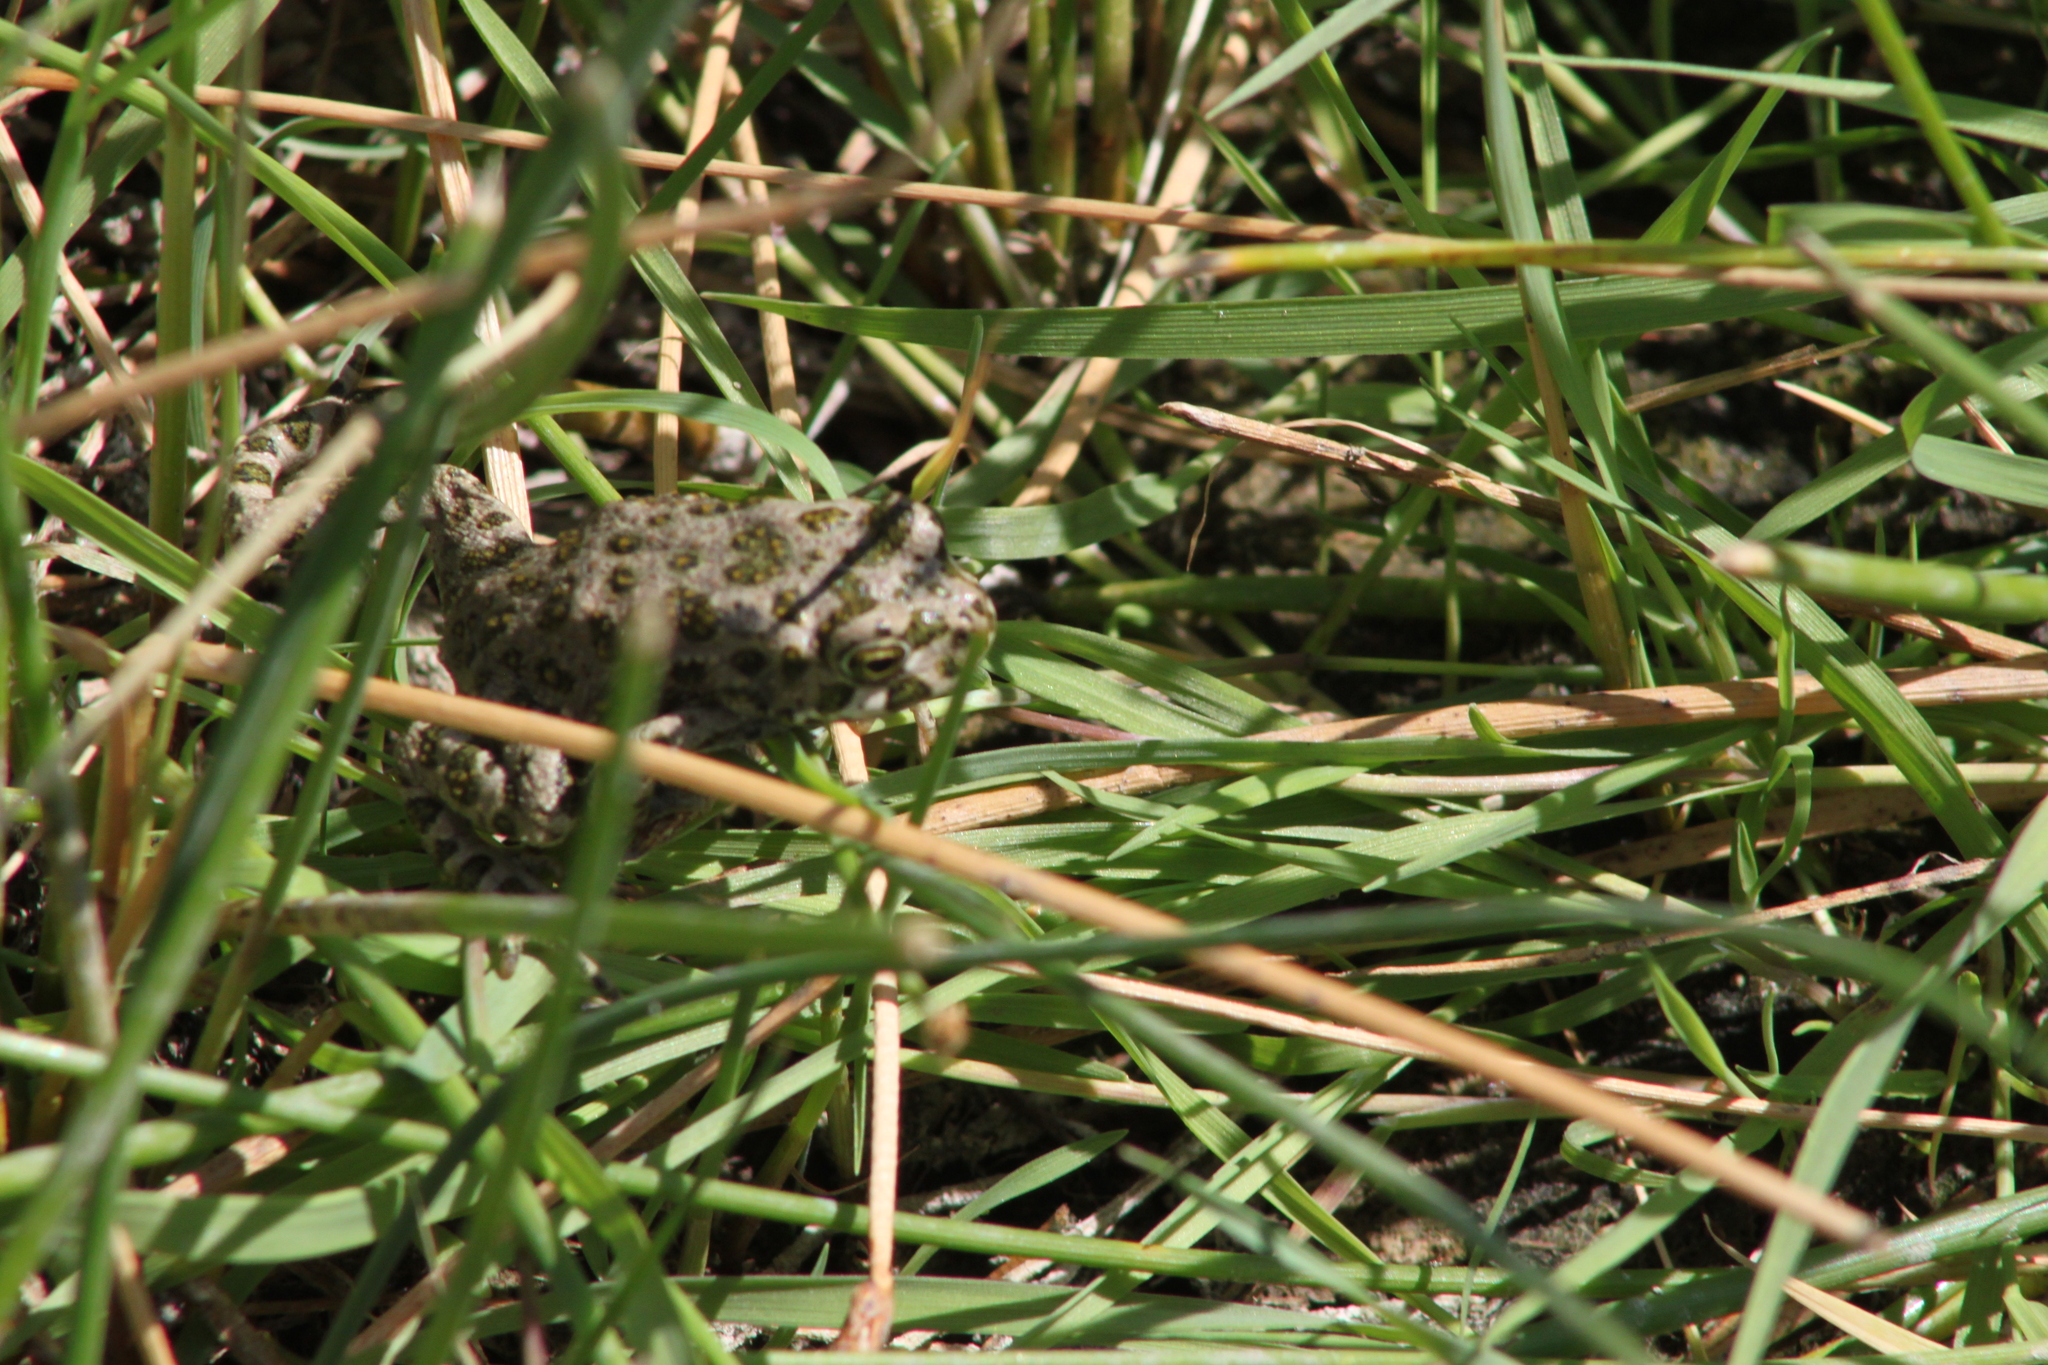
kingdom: Animalia
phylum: Chordata
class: Amphibia
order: Anura
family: Bufonidae
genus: Bufotes
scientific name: Bufotes viridis
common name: European green toad
